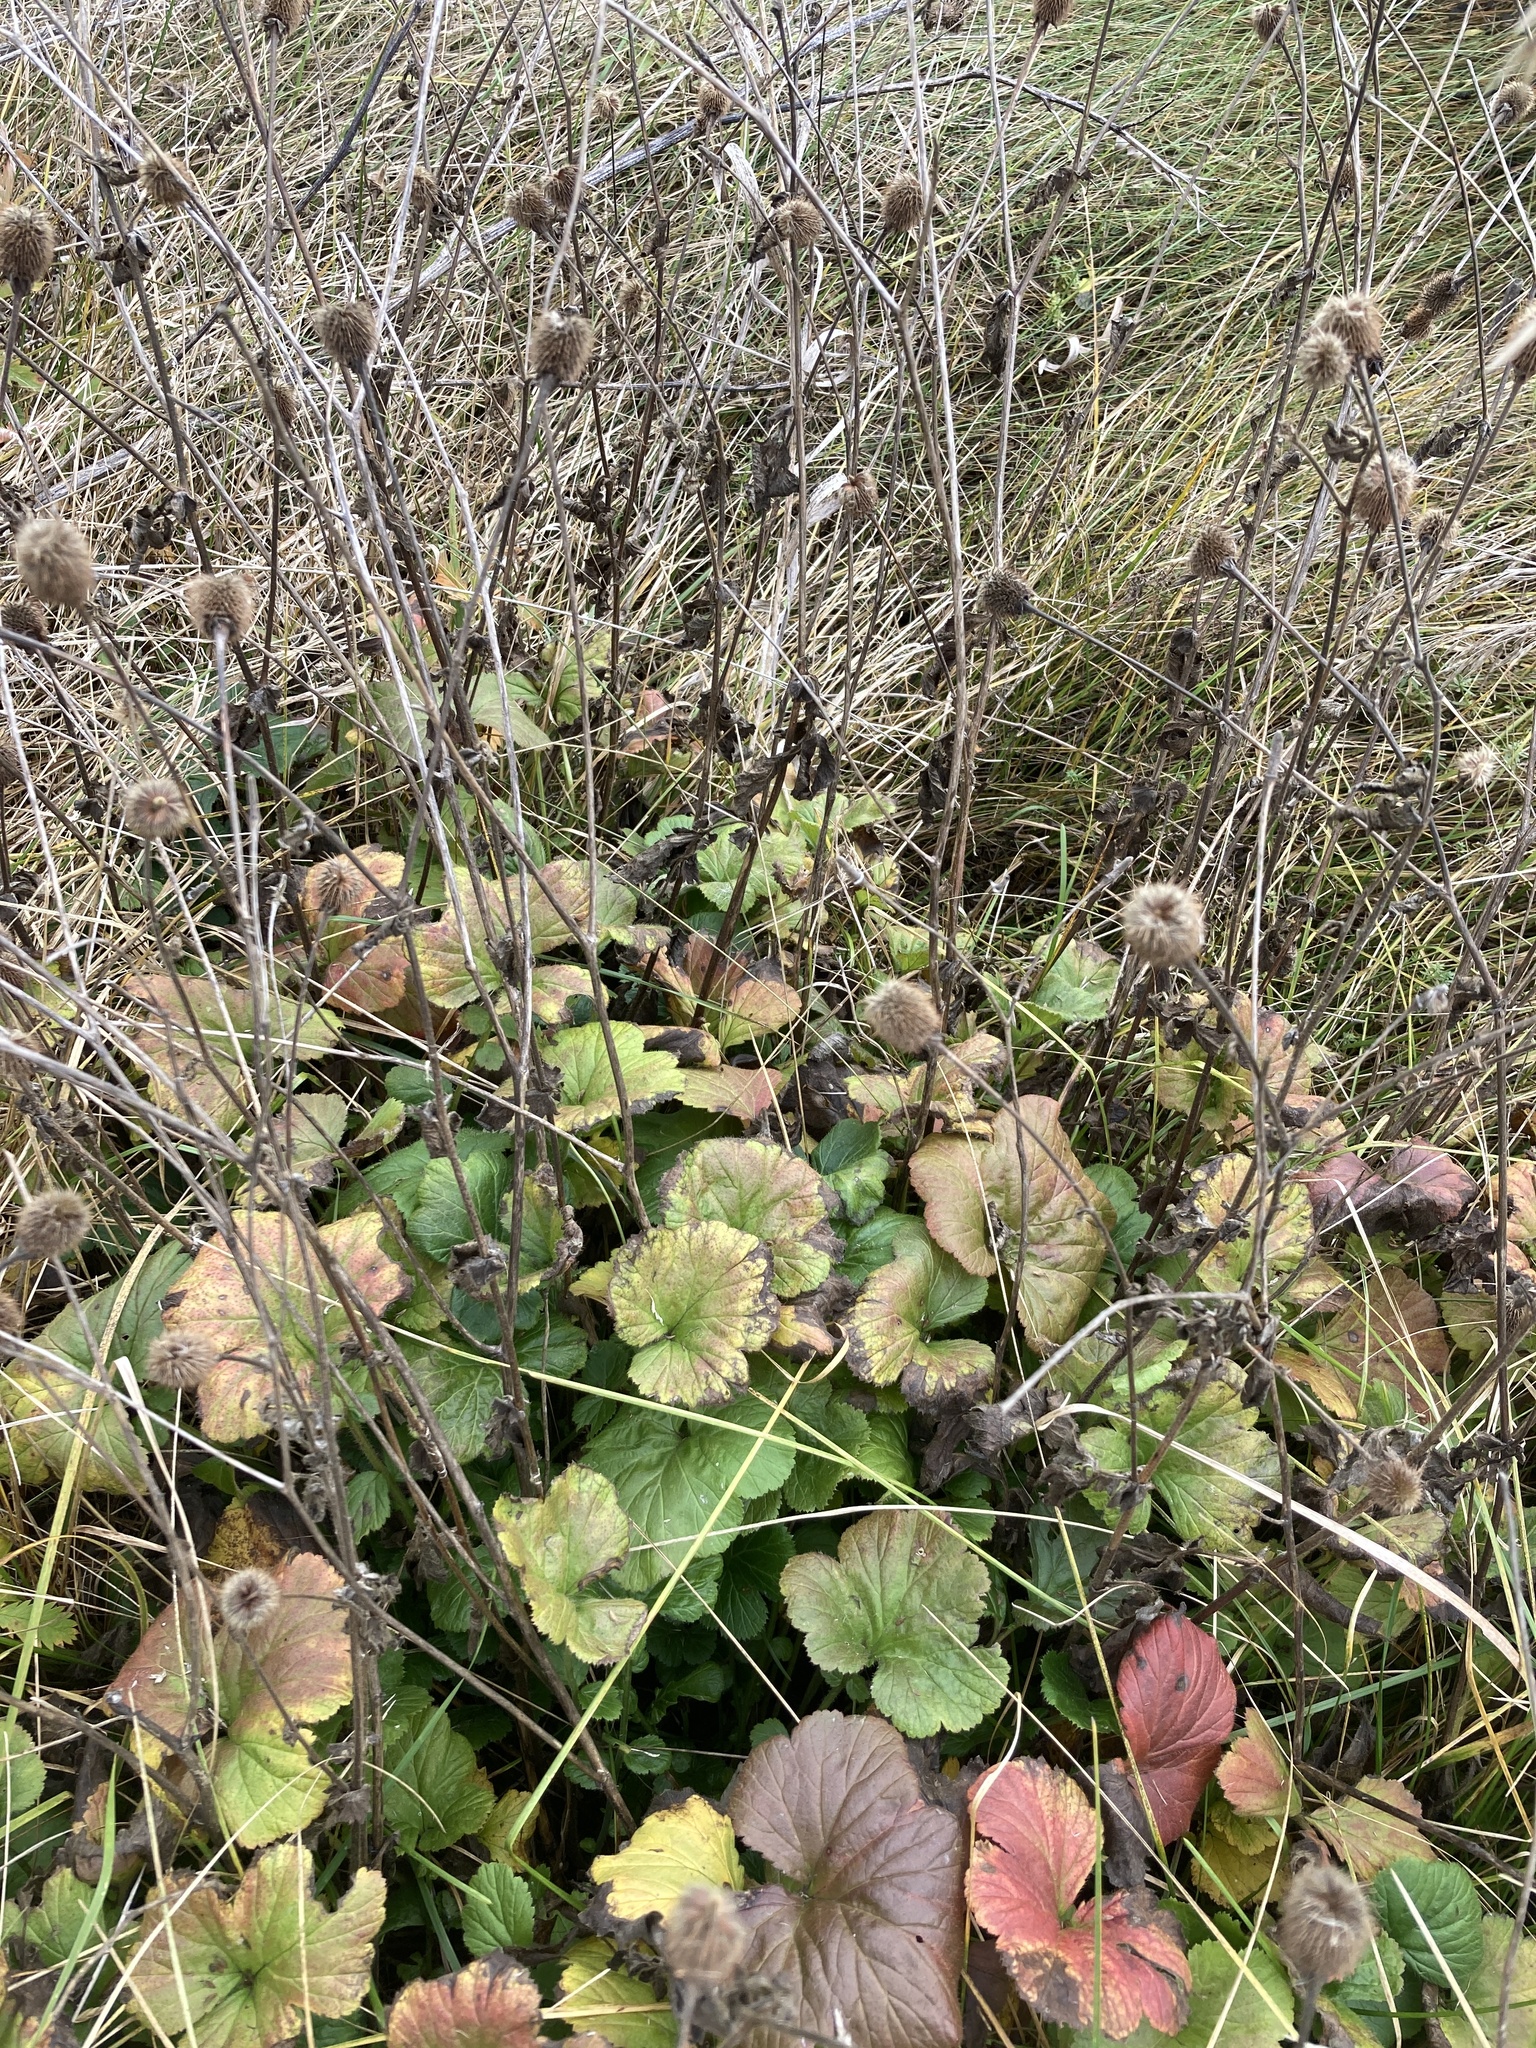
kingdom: Plantae
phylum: Tracheophyta
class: Magnoliopsida
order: Rosales
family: Rosaceae
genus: Geum
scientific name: Geum aleppicum
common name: Yellow avens
